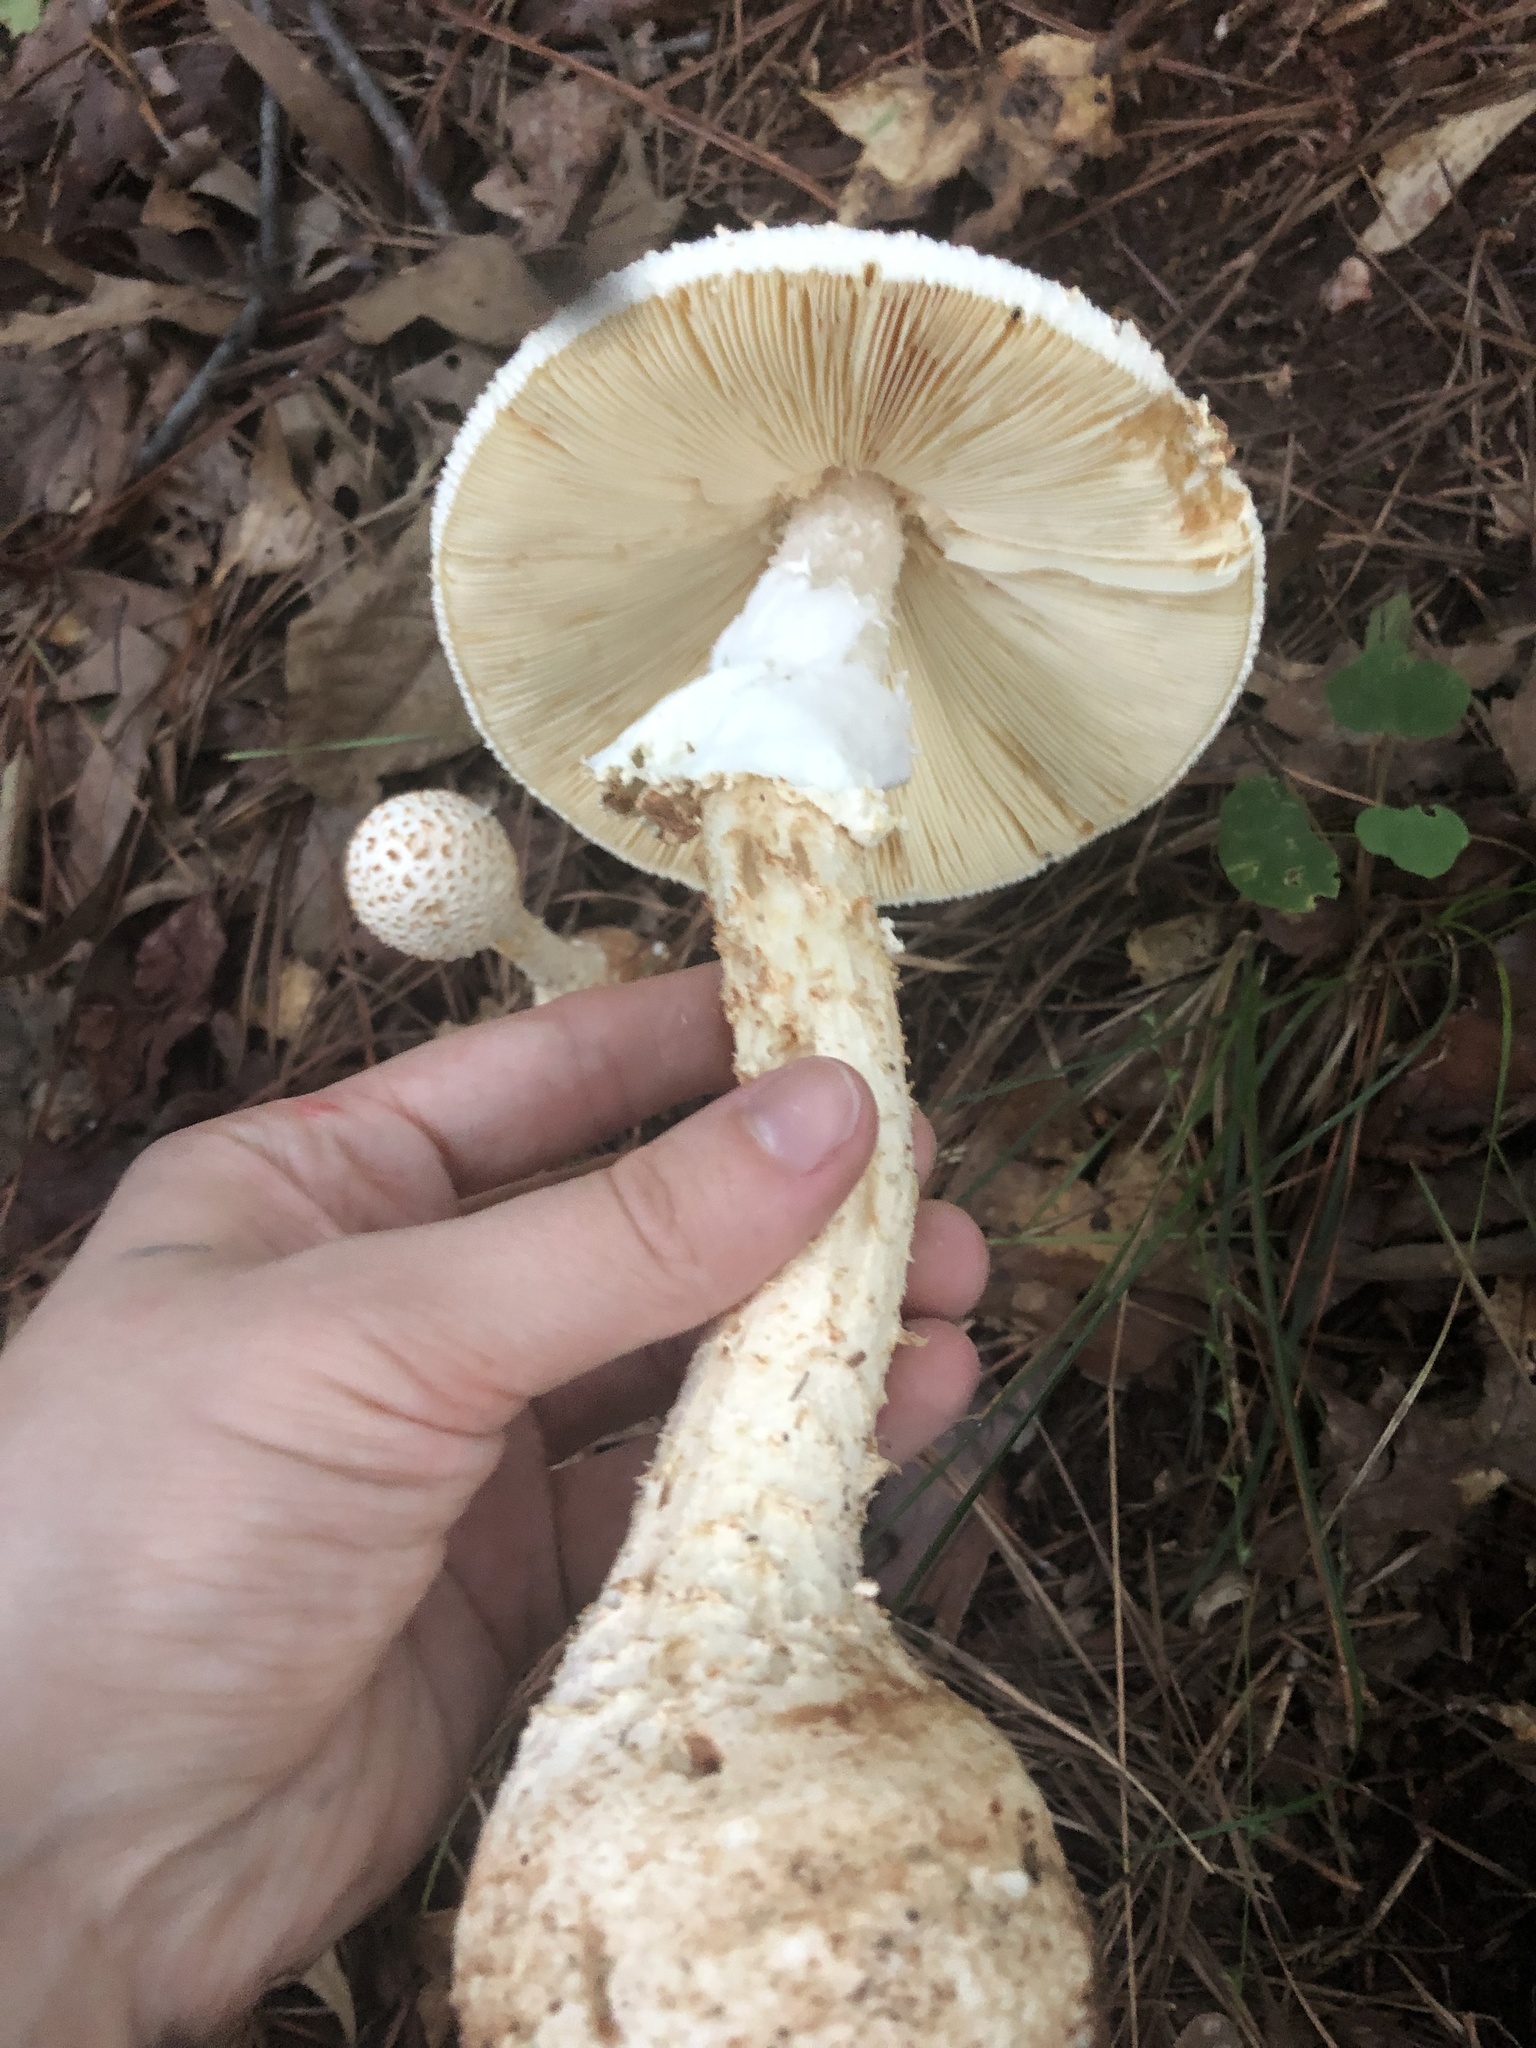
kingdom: Fungi
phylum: Basidiomycota
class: Agaricomycetes
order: Agaricales
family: Amanitaceae
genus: Amanita
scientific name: Amanita daucipes
